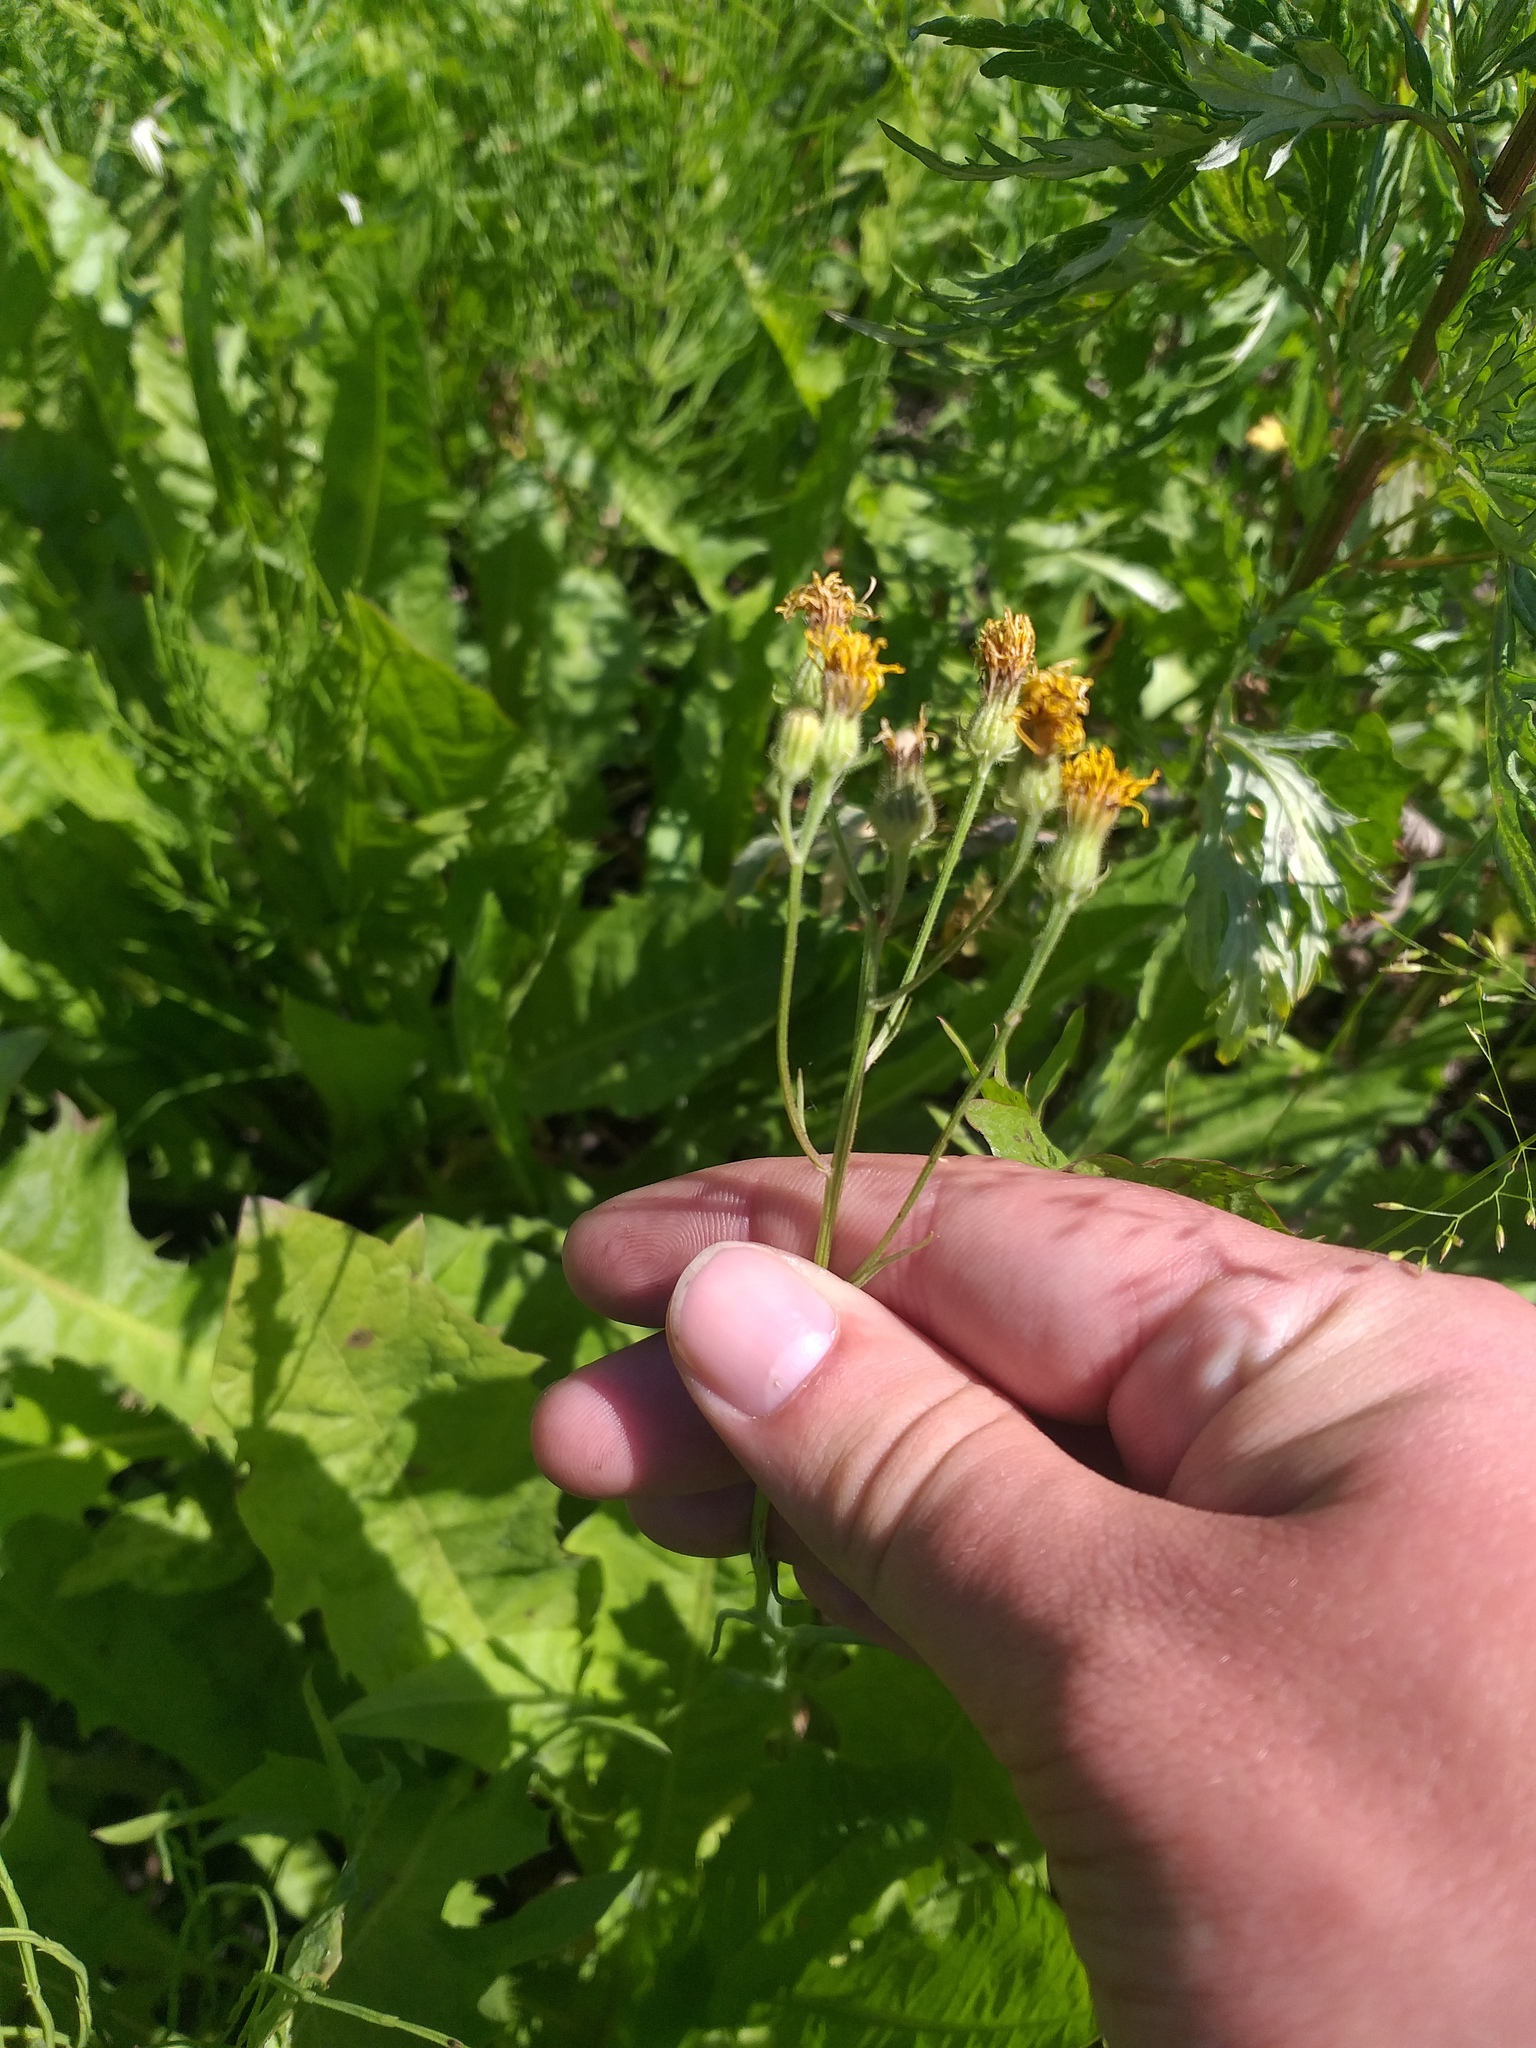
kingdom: Plantae
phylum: Tracheophyta
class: Magnoliopsida
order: Asterales
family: Asteraceae
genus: Crepis
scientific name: Crepis tectorum
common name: Narrow-leaved hawk's-beard
